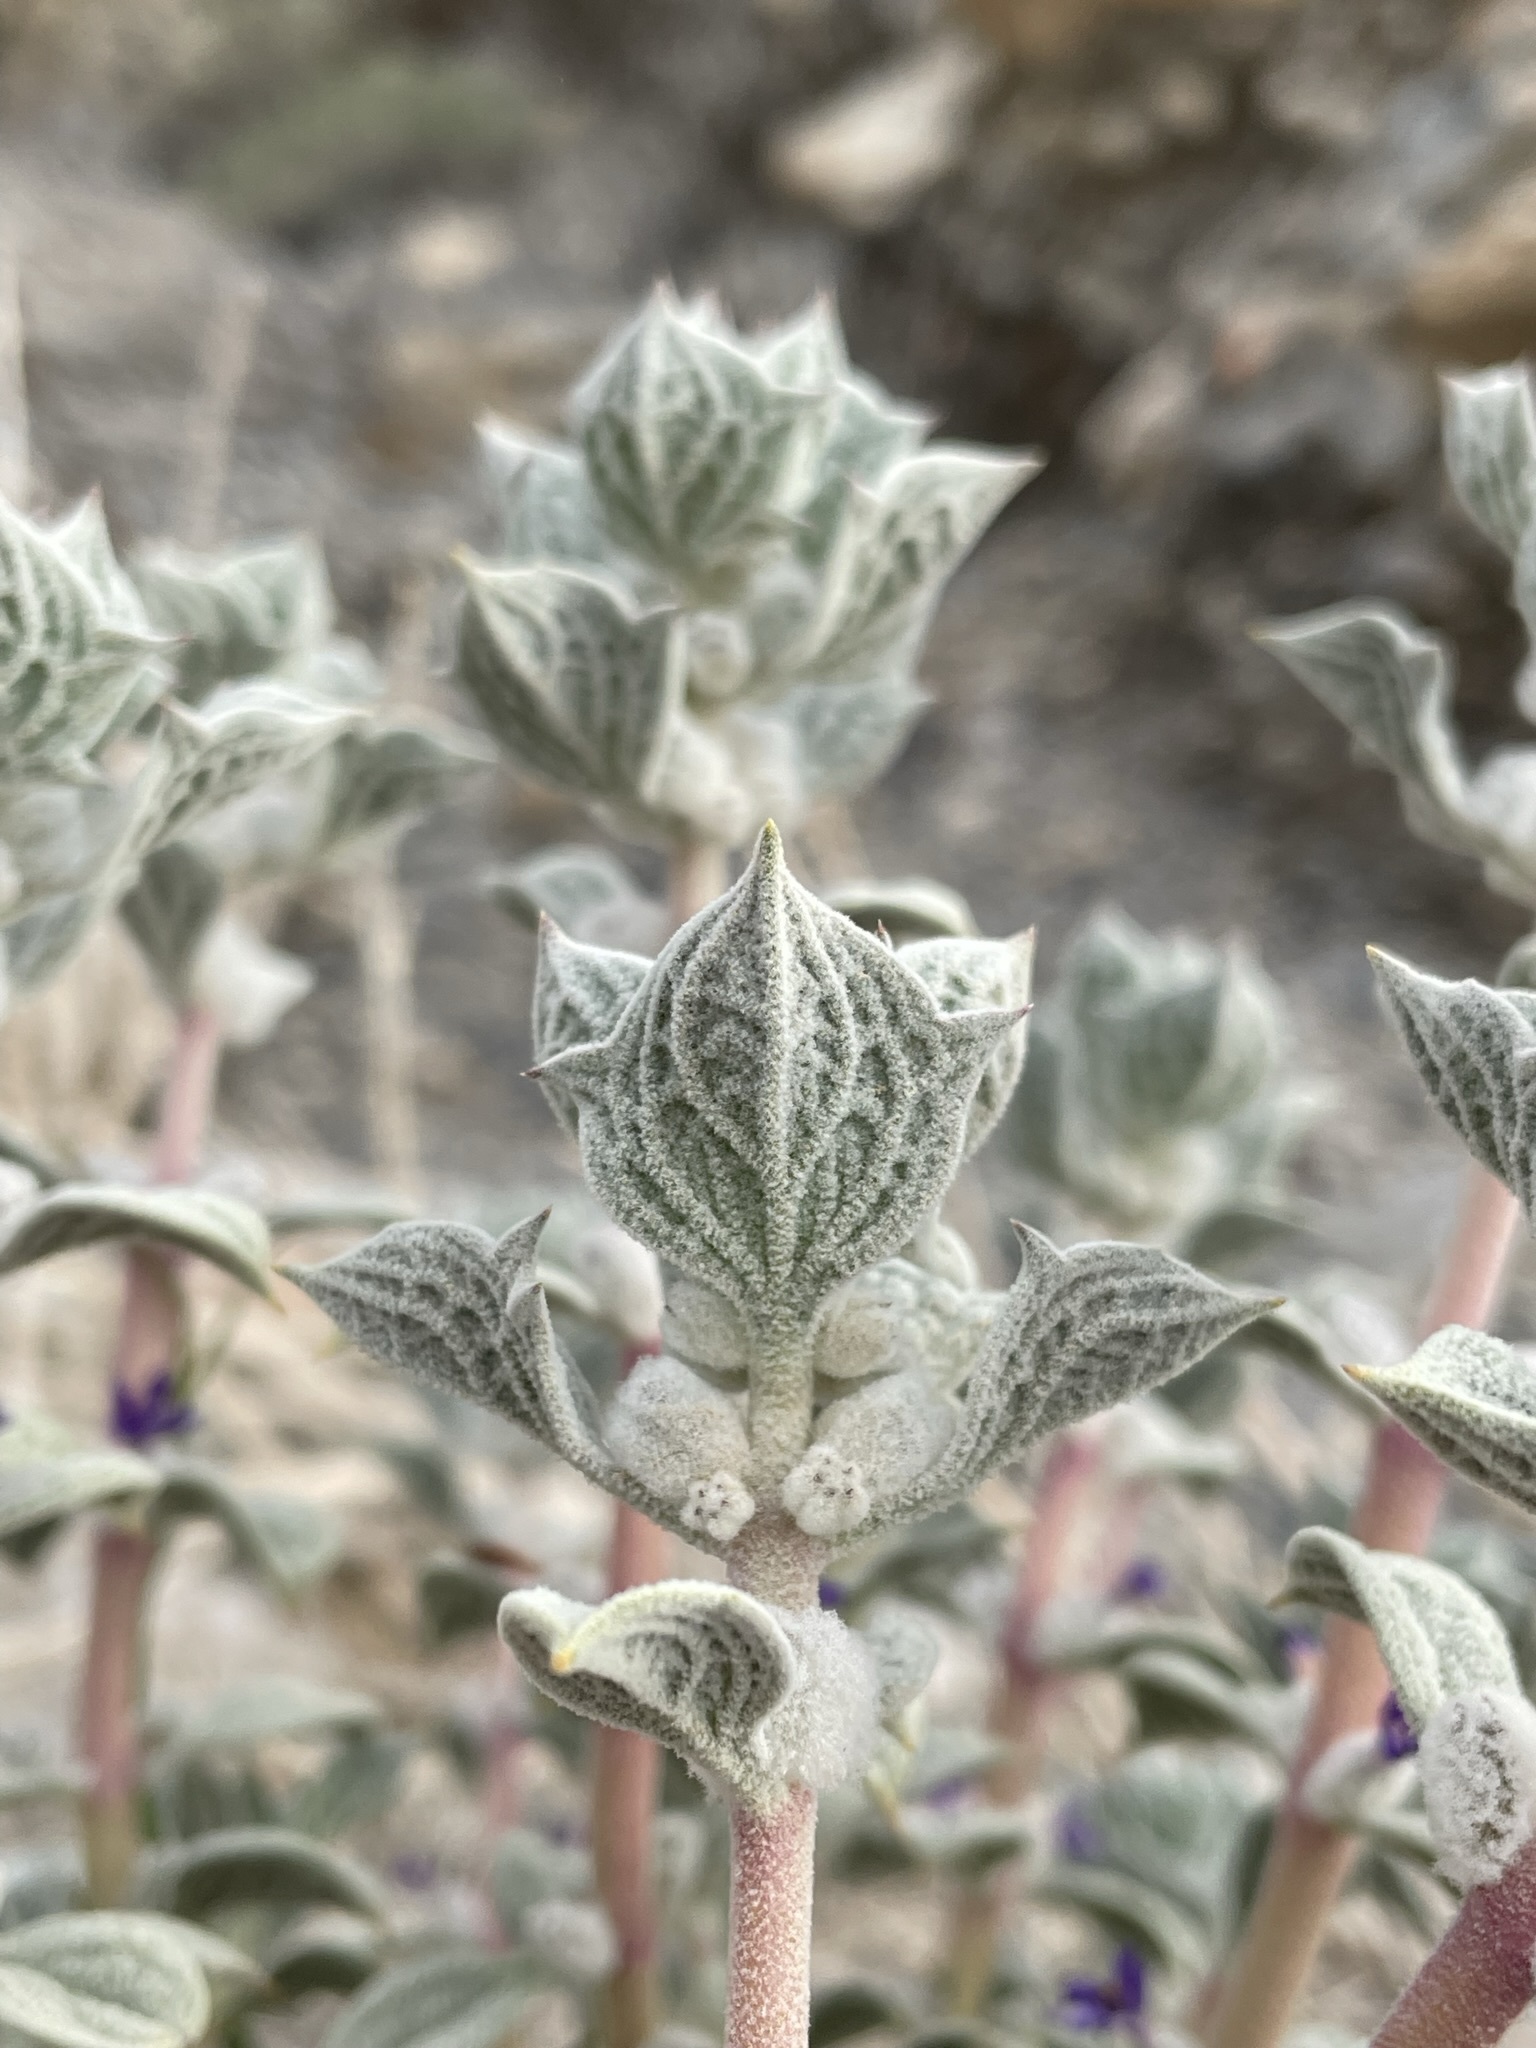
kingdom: Plantae
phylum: Tracheophyta
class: Magnoliopsida
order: Lamiales
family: Lamiaceae
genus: Salvia
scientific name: Salvia funerea
